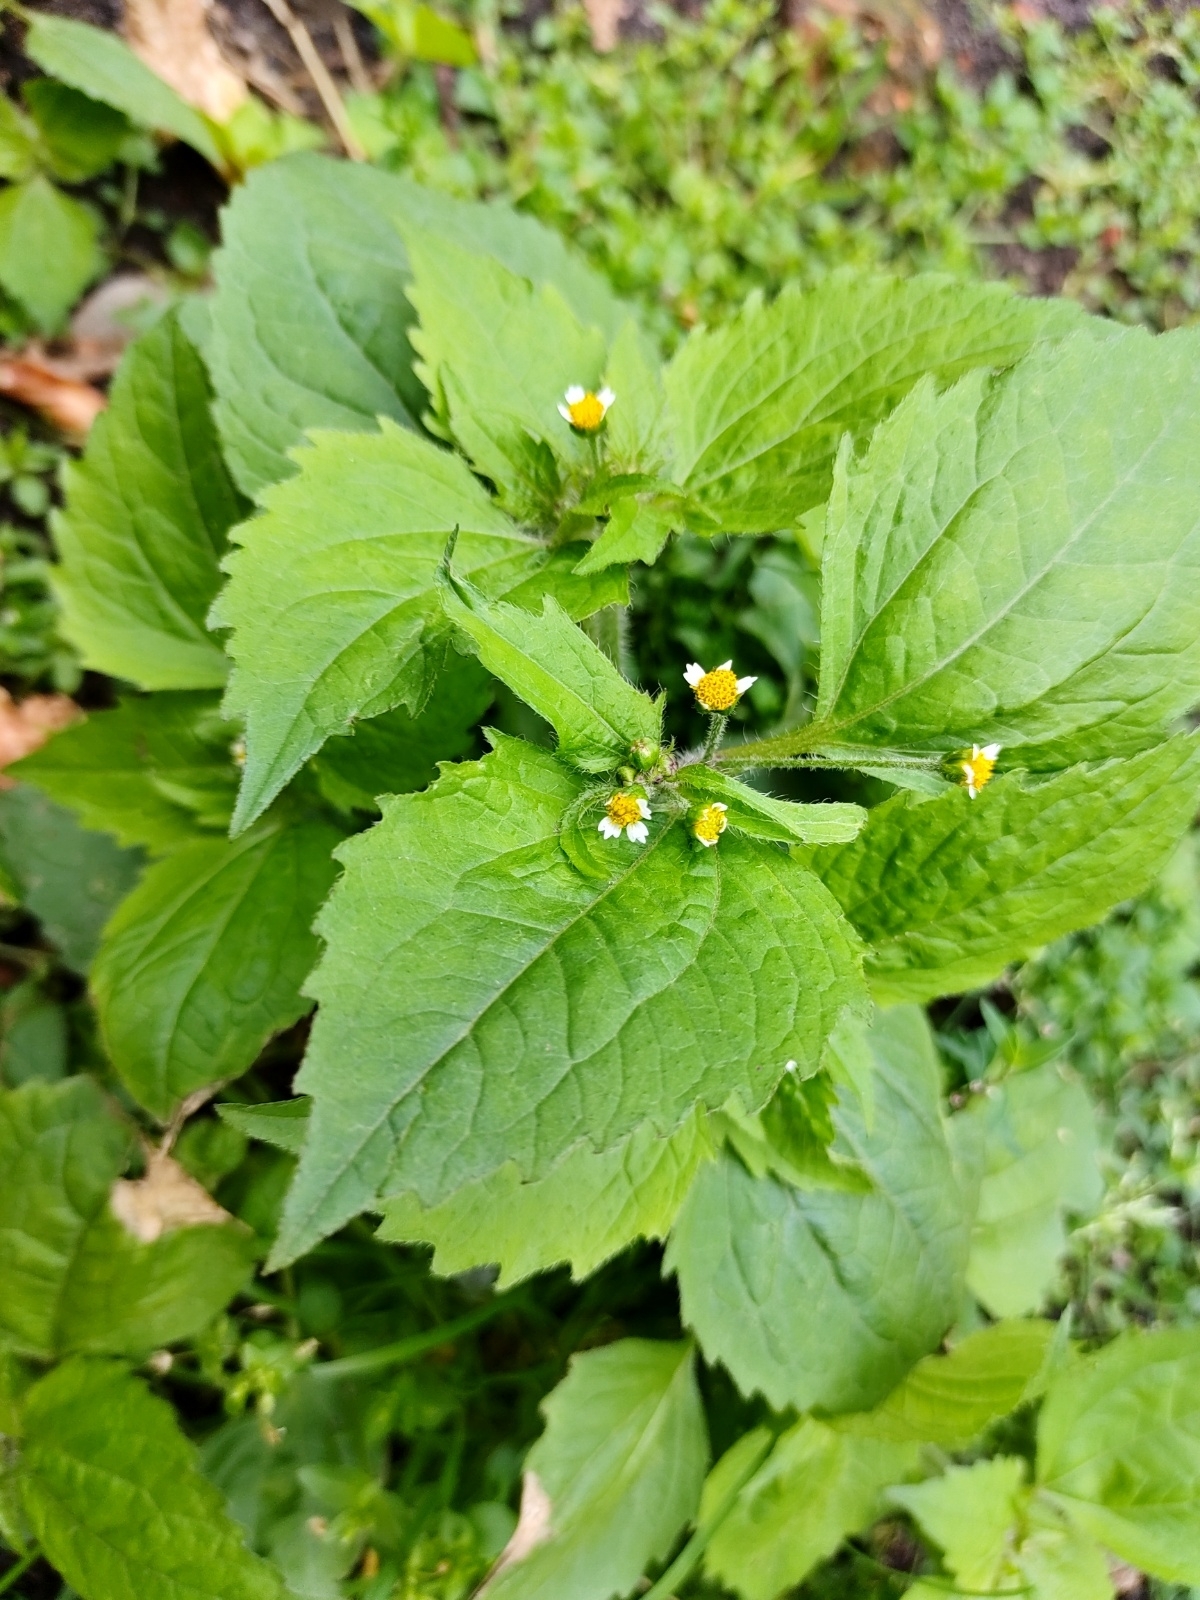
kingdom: Plantae
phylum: Tracheophyta
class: Magnoliopsida
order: Asterales
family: Asteraceae
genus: Galinsoga
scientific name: Galinsoga quadriradiata
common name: Shaggy soldier
